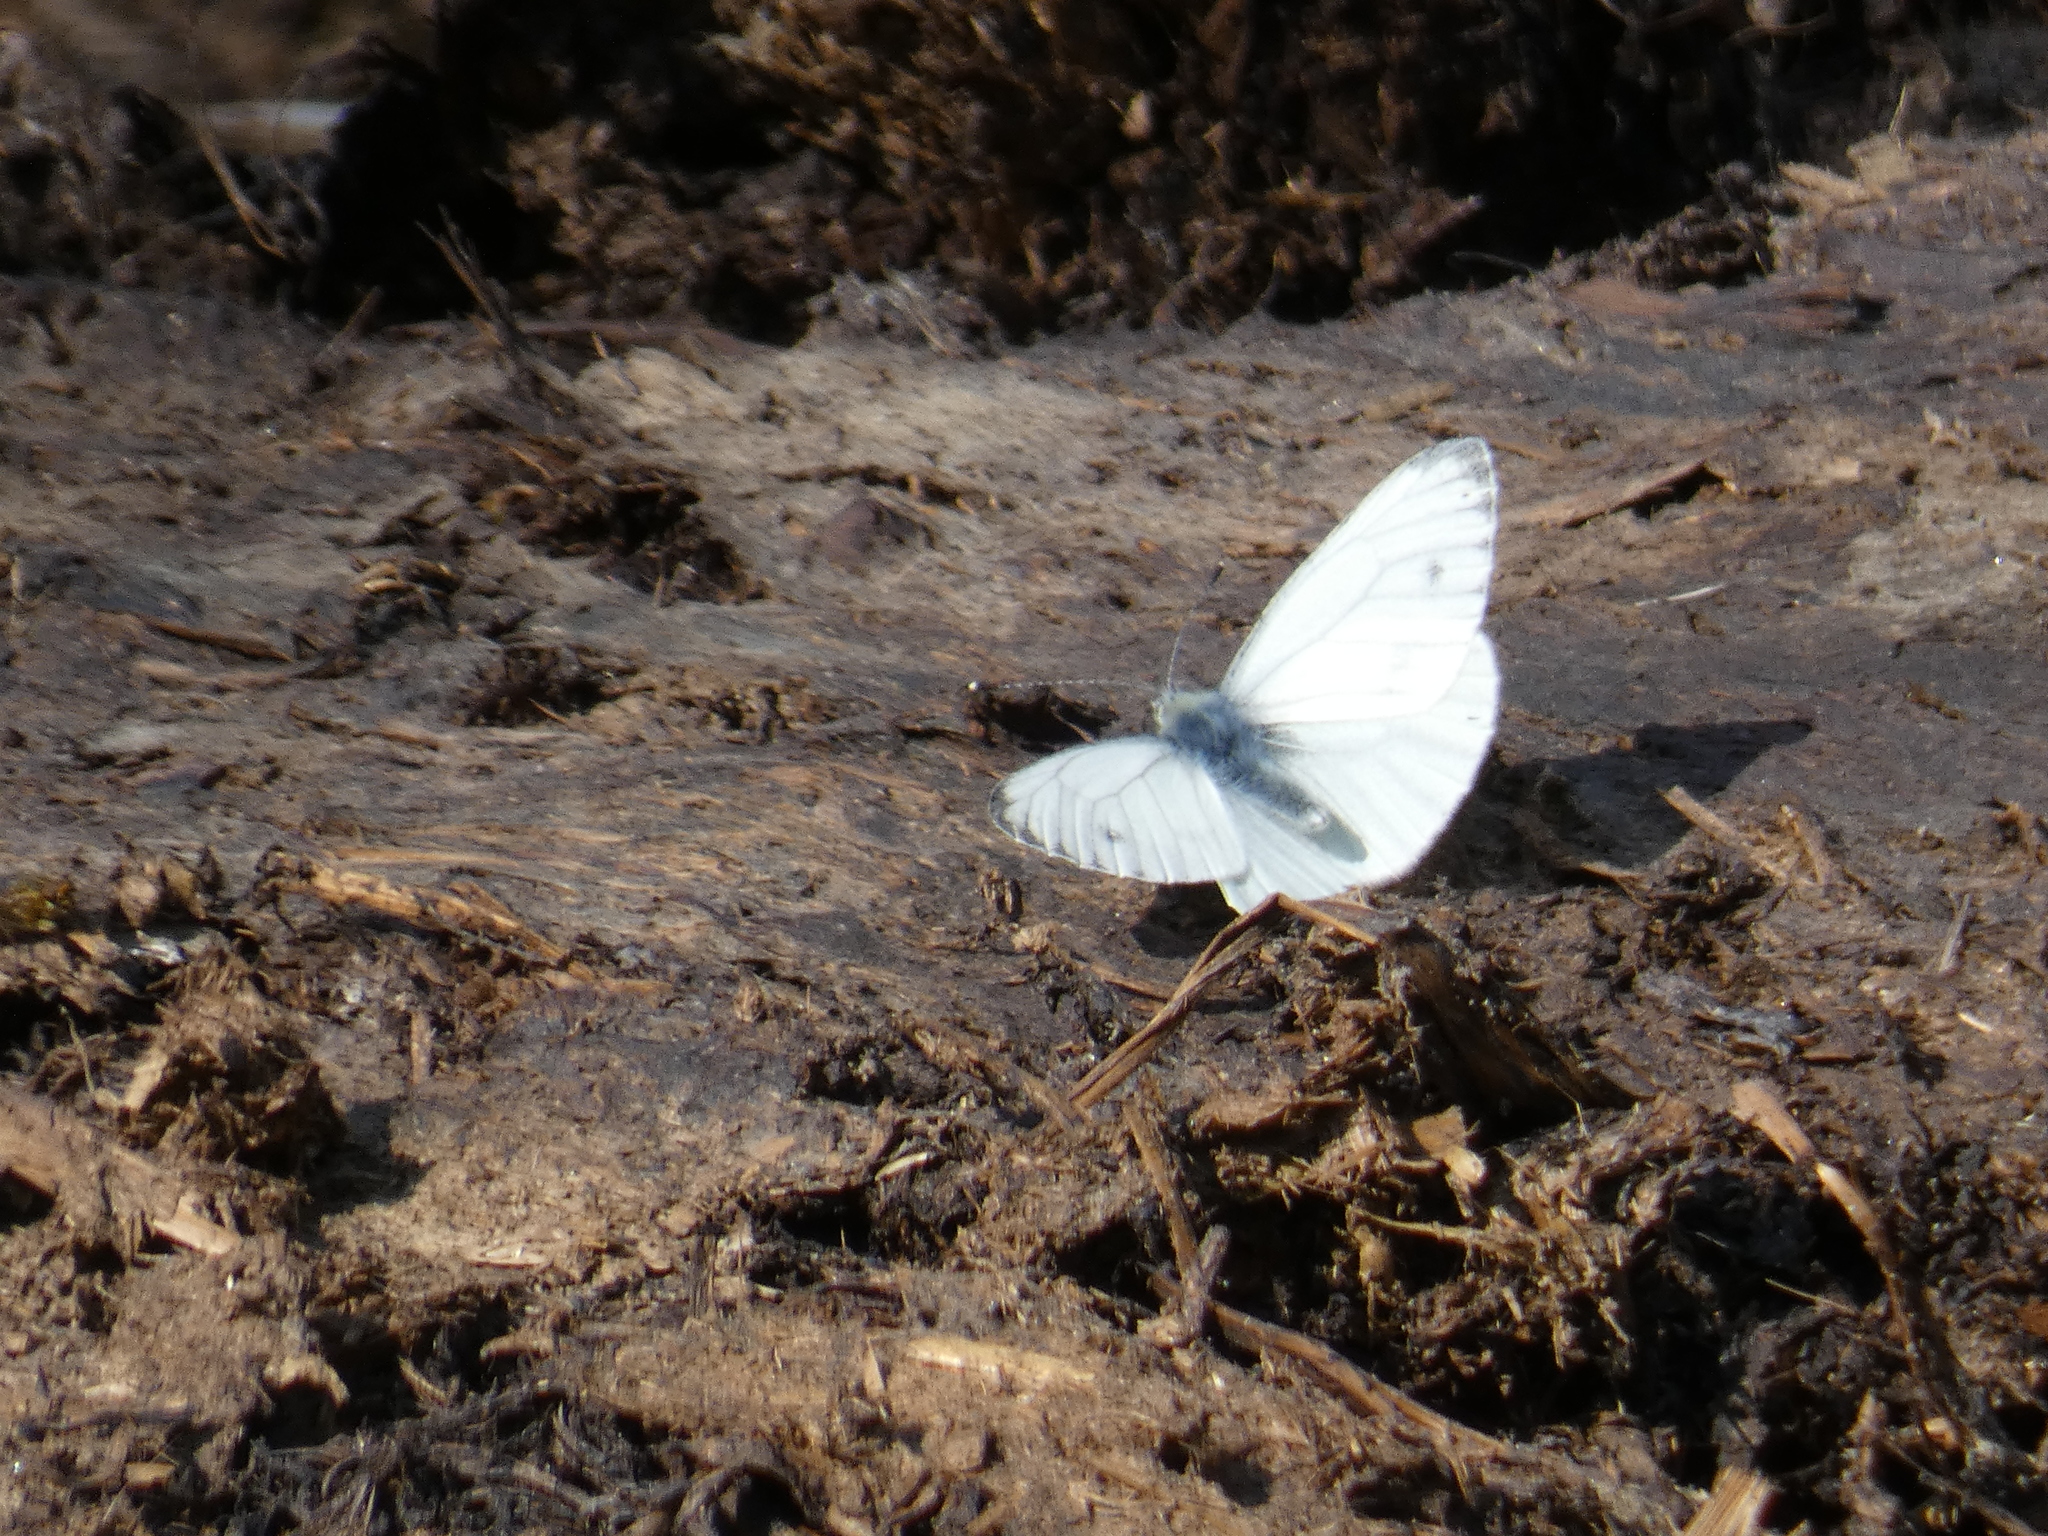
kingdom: Animalia
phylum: Arthropoda
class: Insecta
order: Lepidoptera
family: Pieridae
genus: Pieris
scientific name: Pieris napi
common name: Green-veined white
